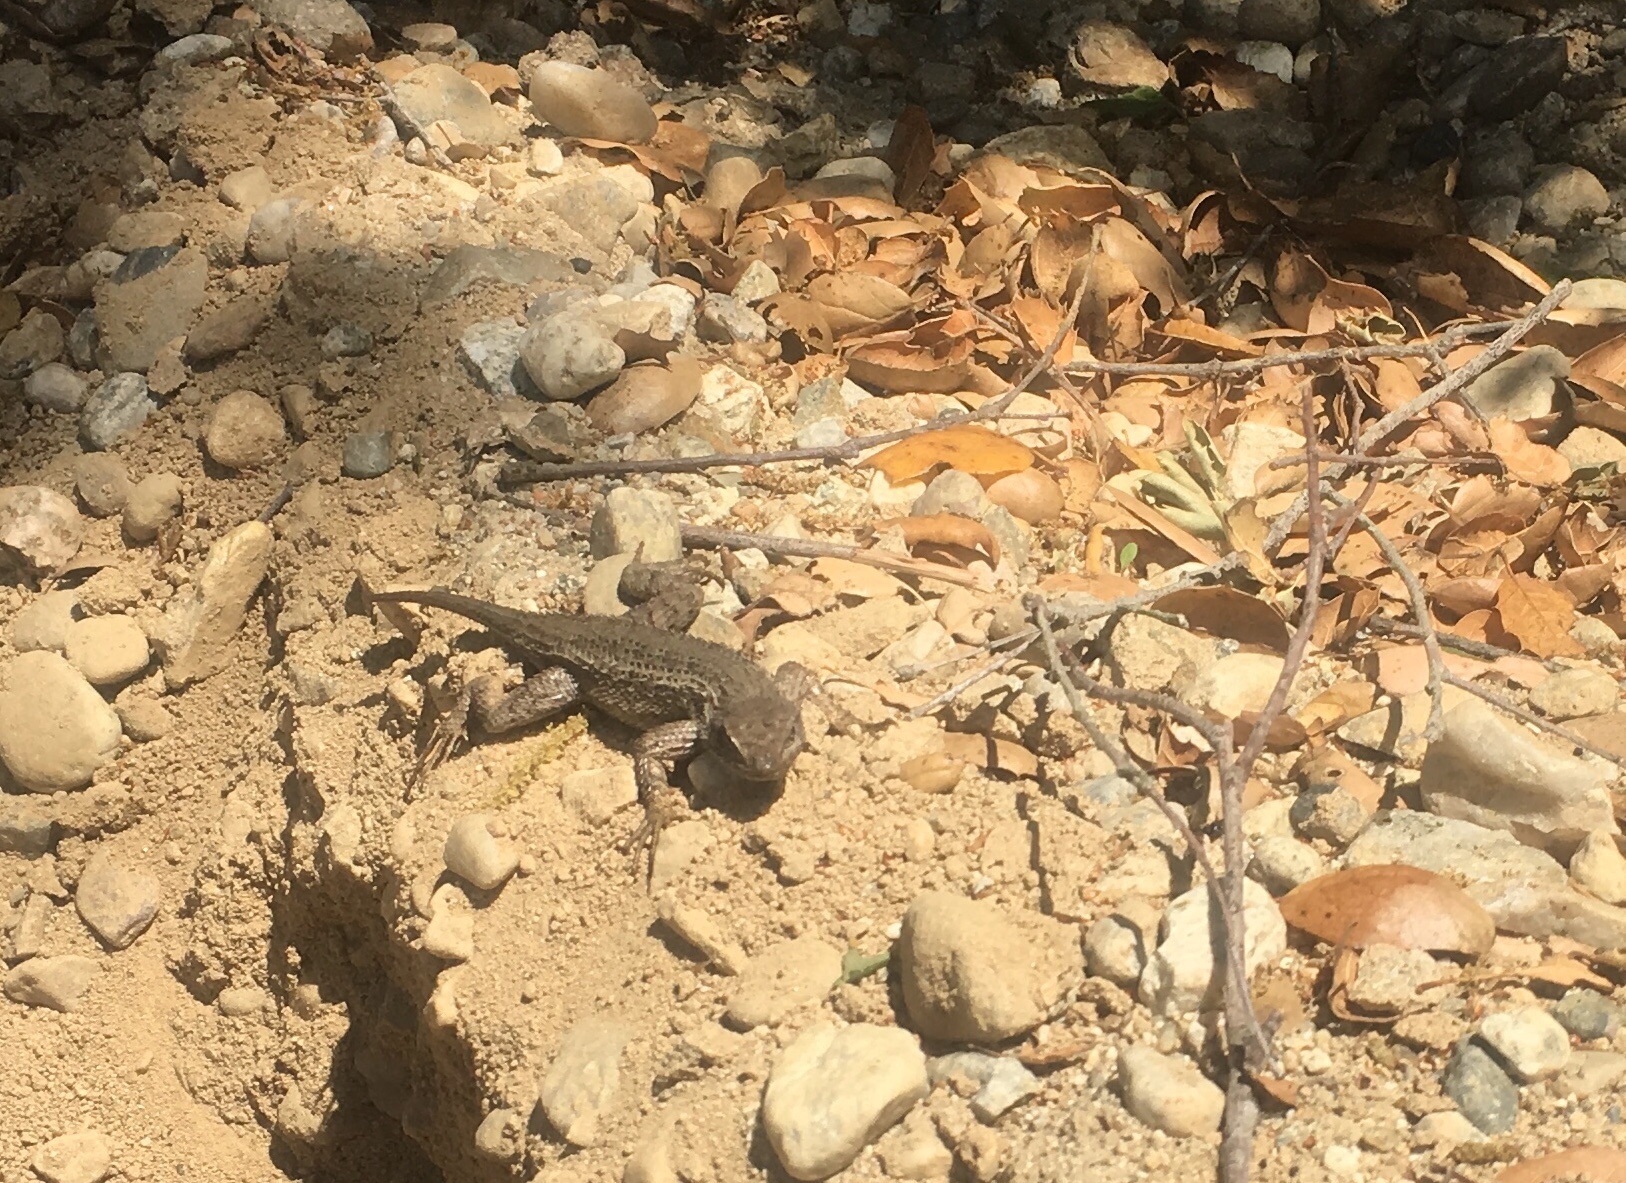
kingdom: Animalia
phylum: Chordata
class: Squamata
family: Phrynosomatidae
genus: Sceloporus
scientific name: Sceloporus occidentalis
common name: Western fence lizard
